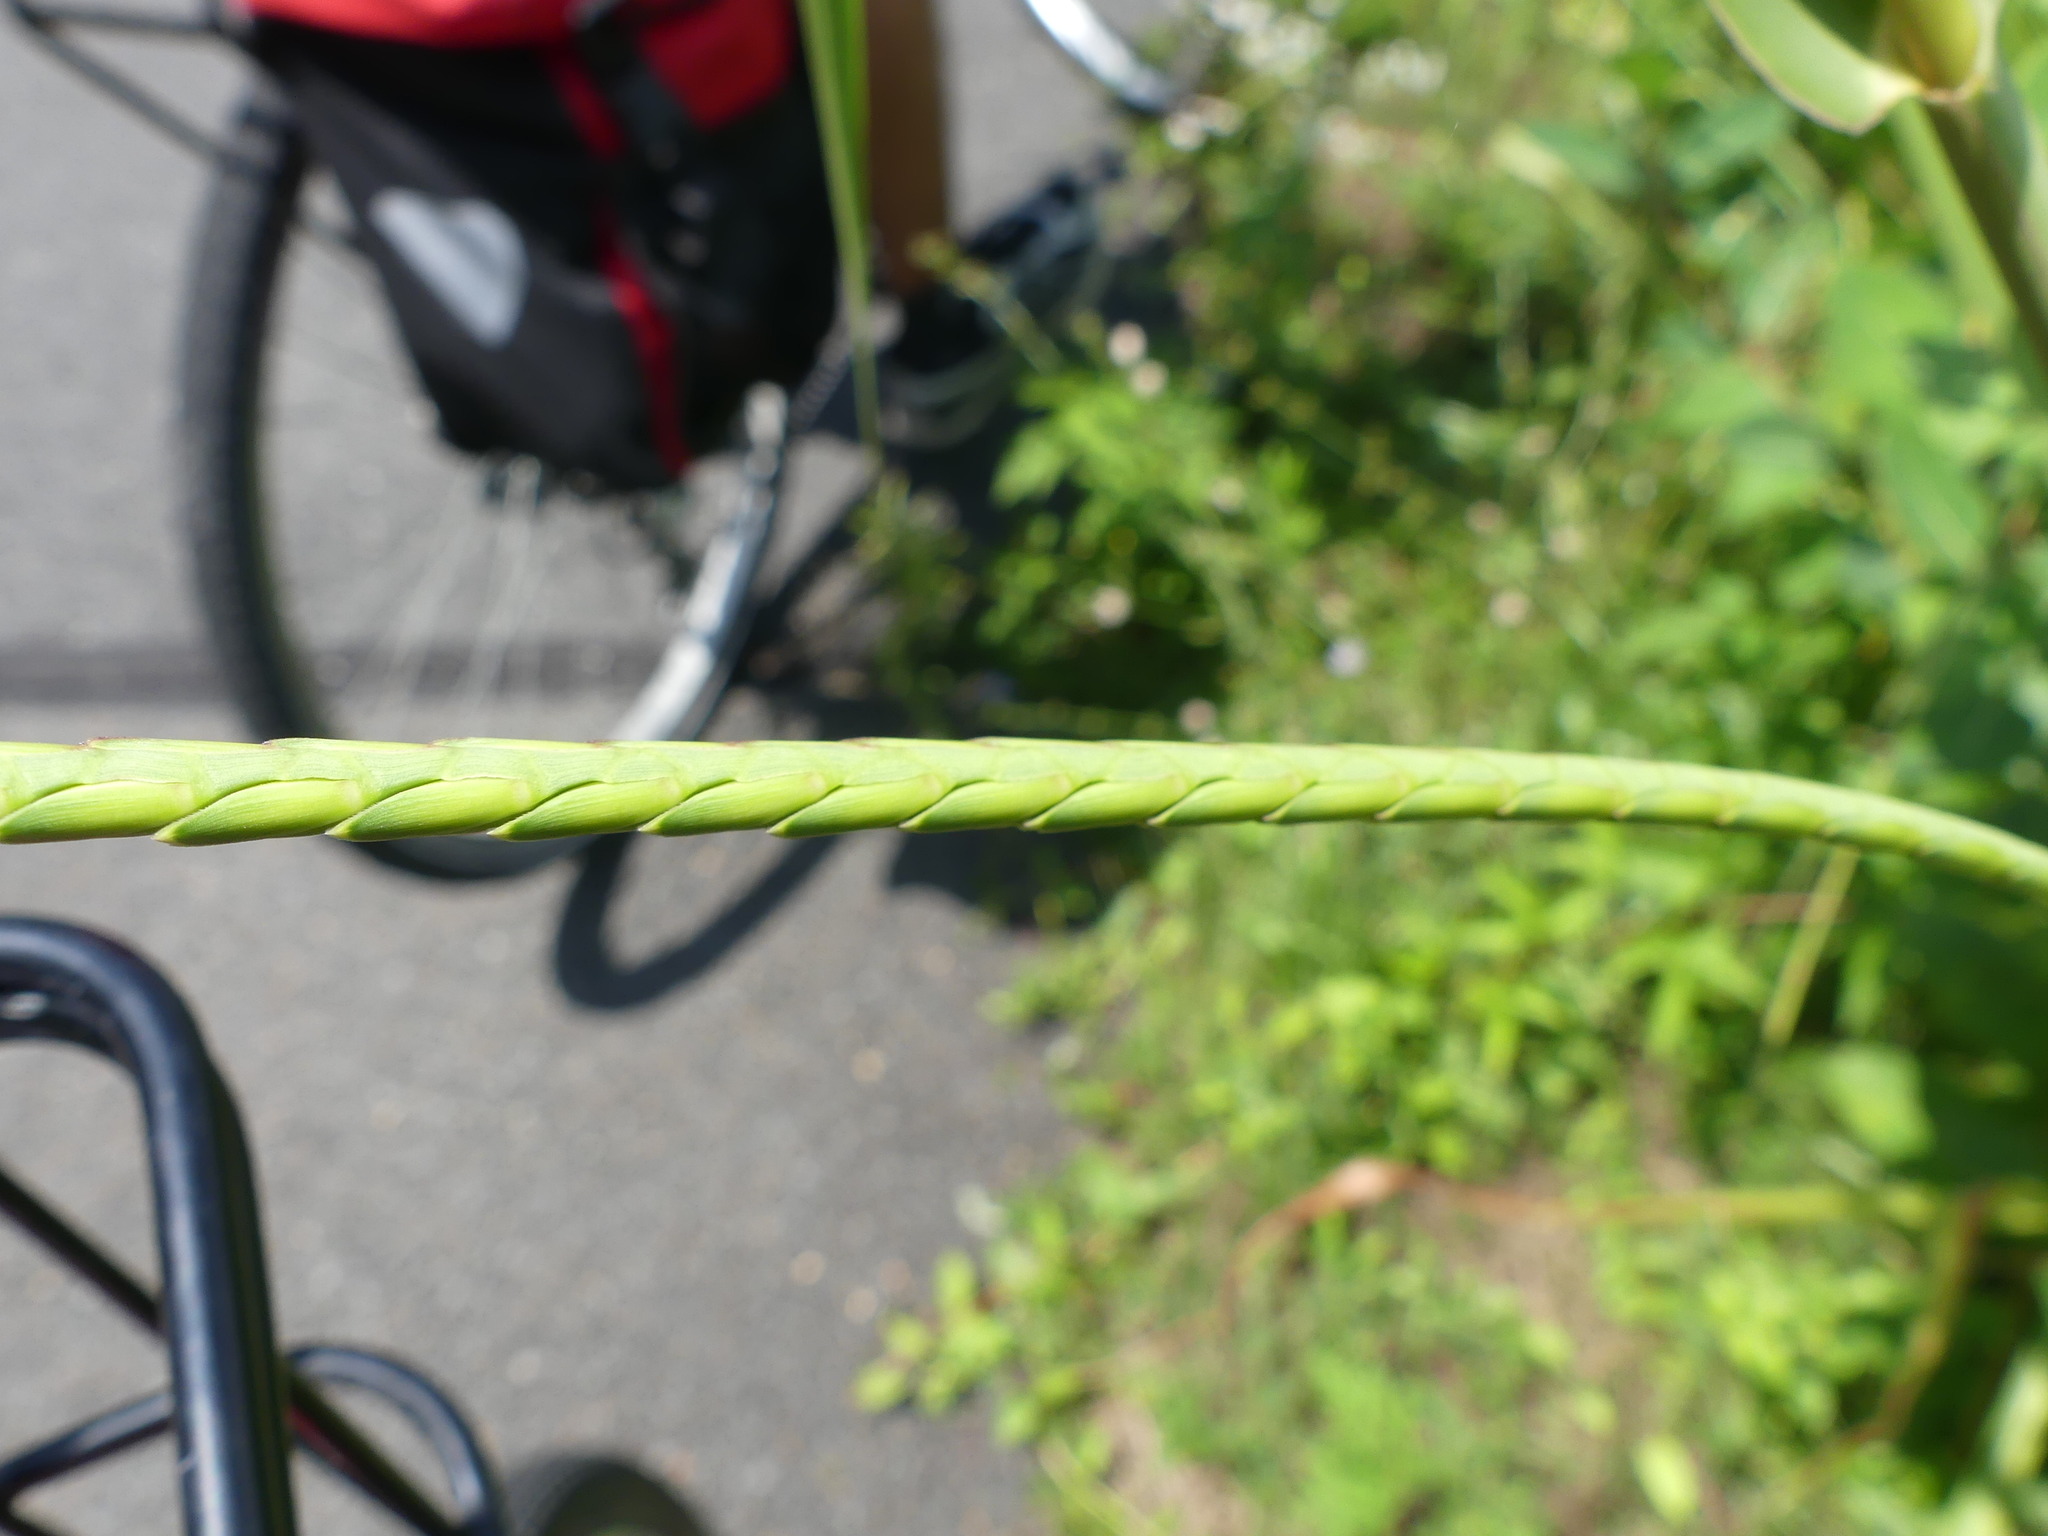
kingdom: Plantae
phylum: Tracheophyta
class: Liliopsida
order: Poales
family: Poaceae
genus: Tripsacum
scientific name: Tripsacum dactyloides
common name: Buffalo-grass
